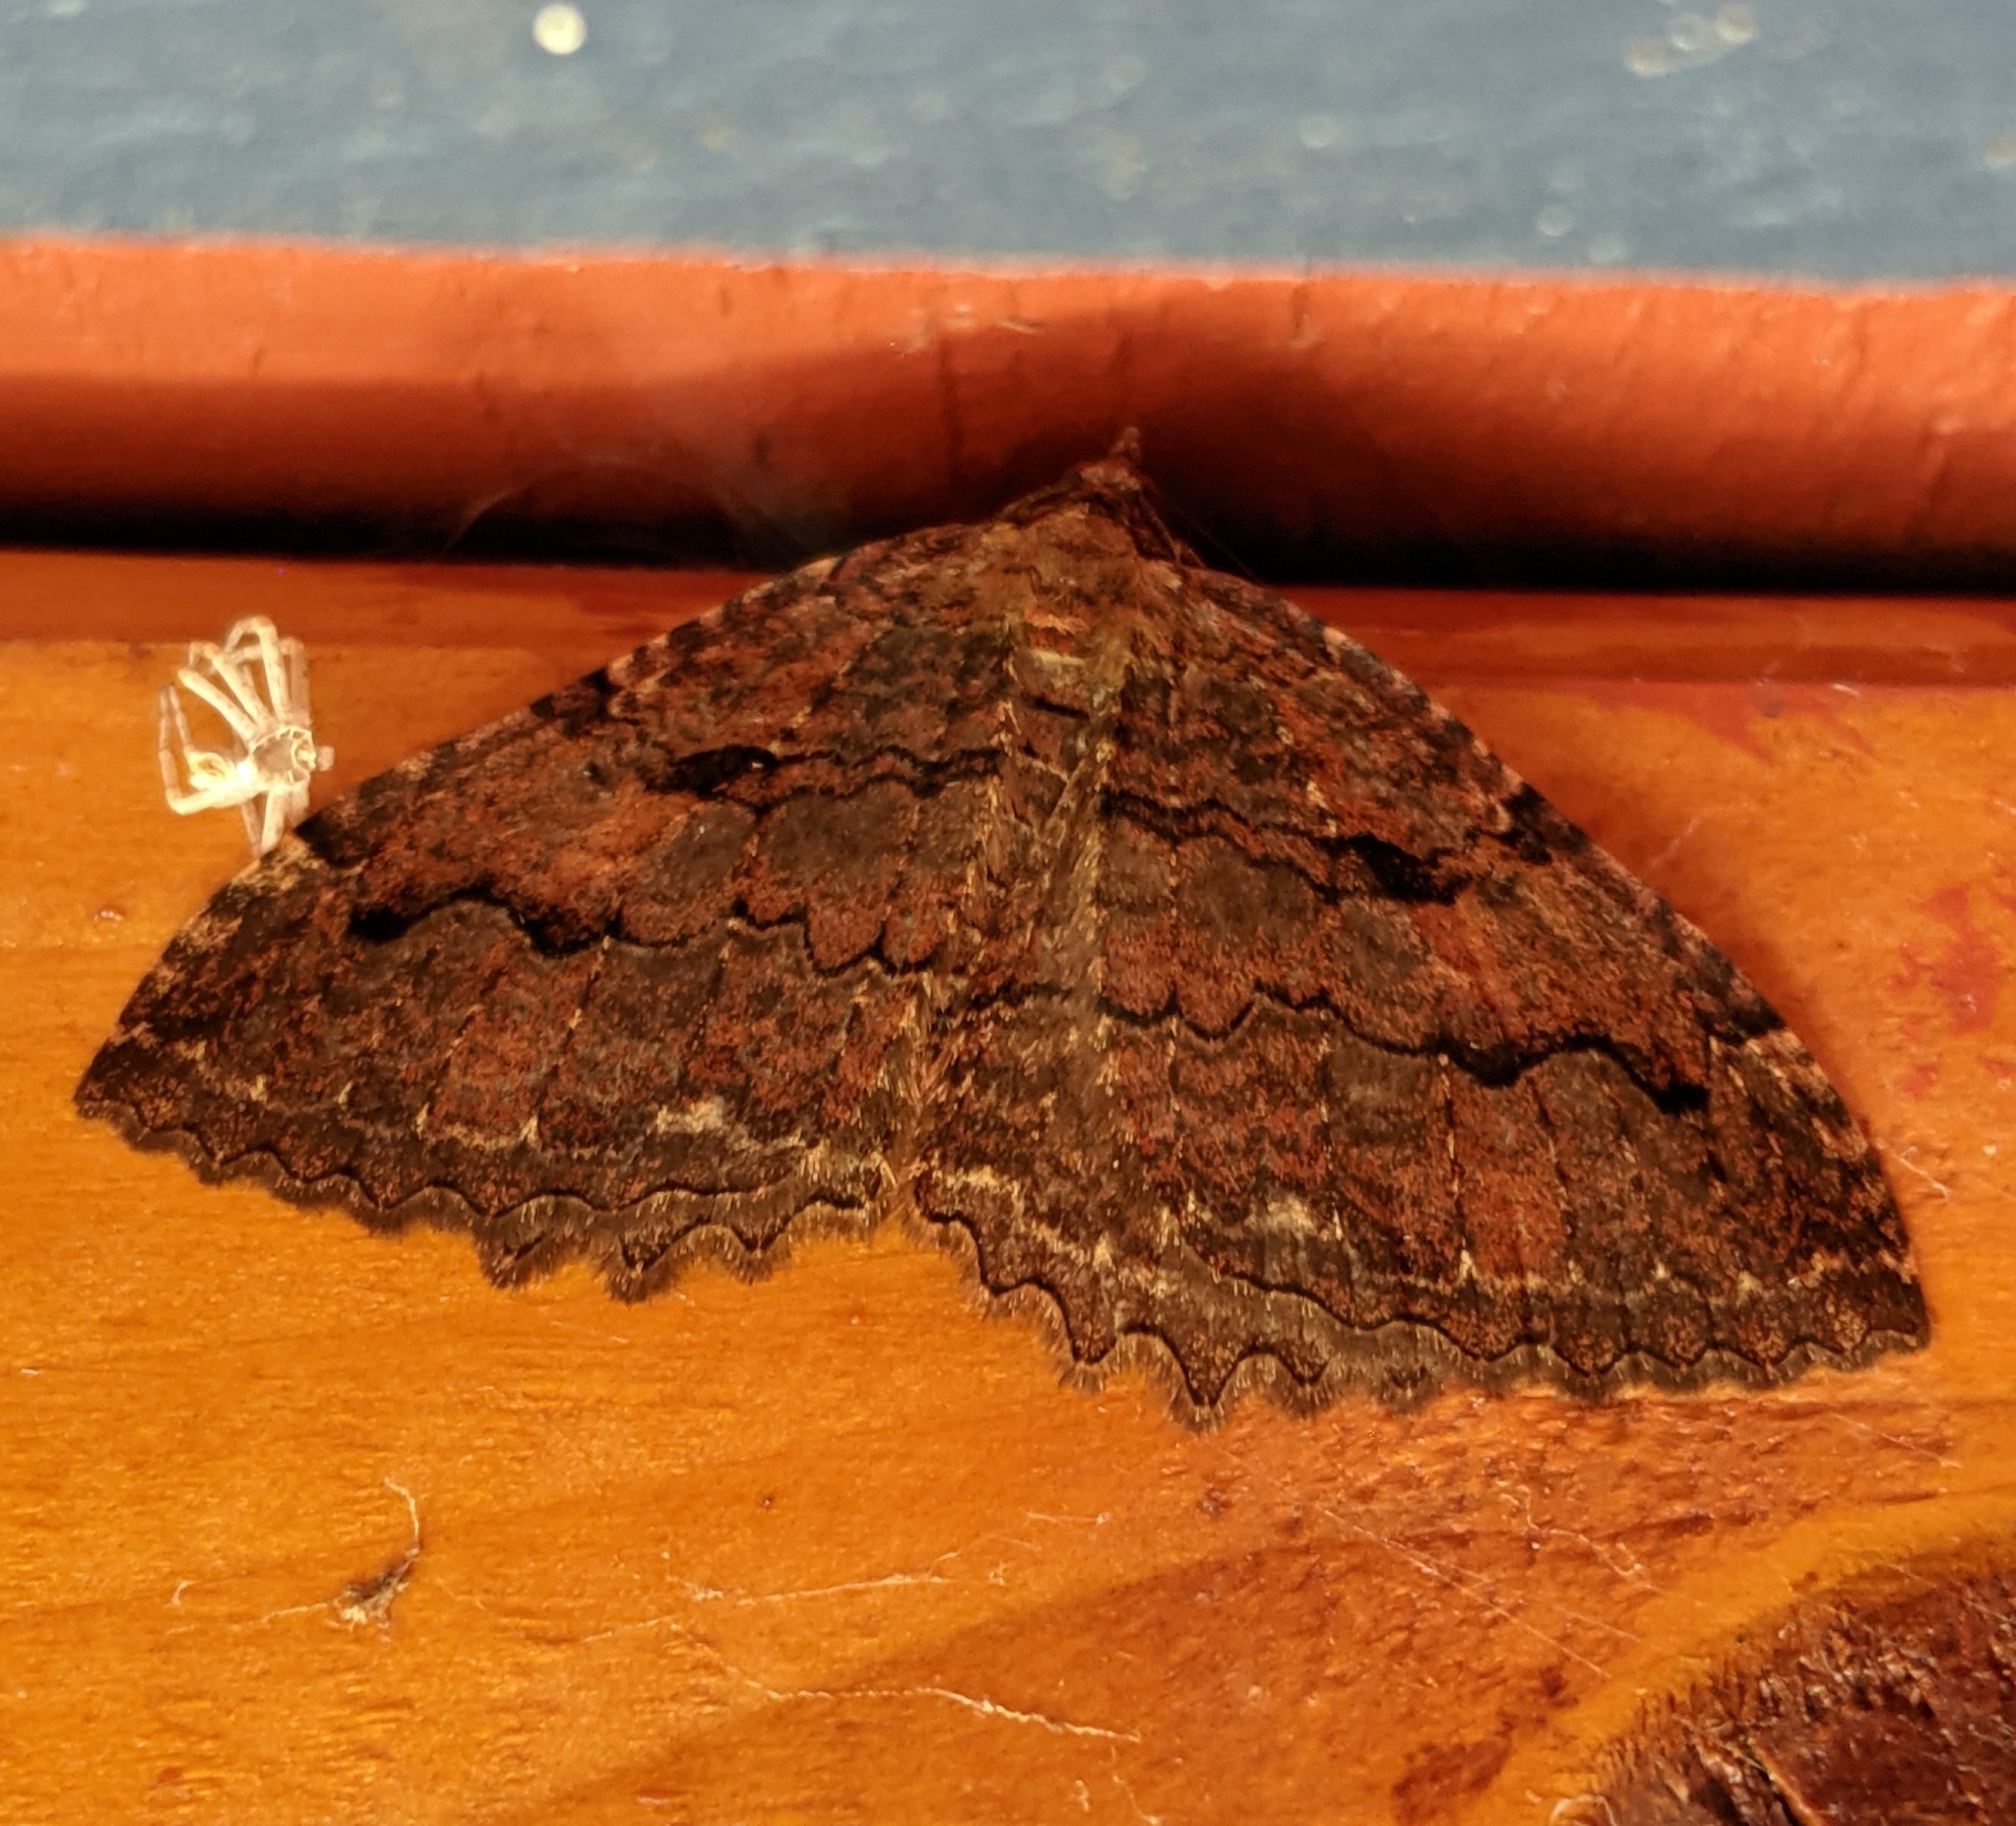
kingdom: Animalia
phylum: Arthropoda
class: Insecta
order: Lepidoptera
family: Geometridae
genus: Triphosa
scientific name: Triphosa haesitata
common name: Tissue moth
